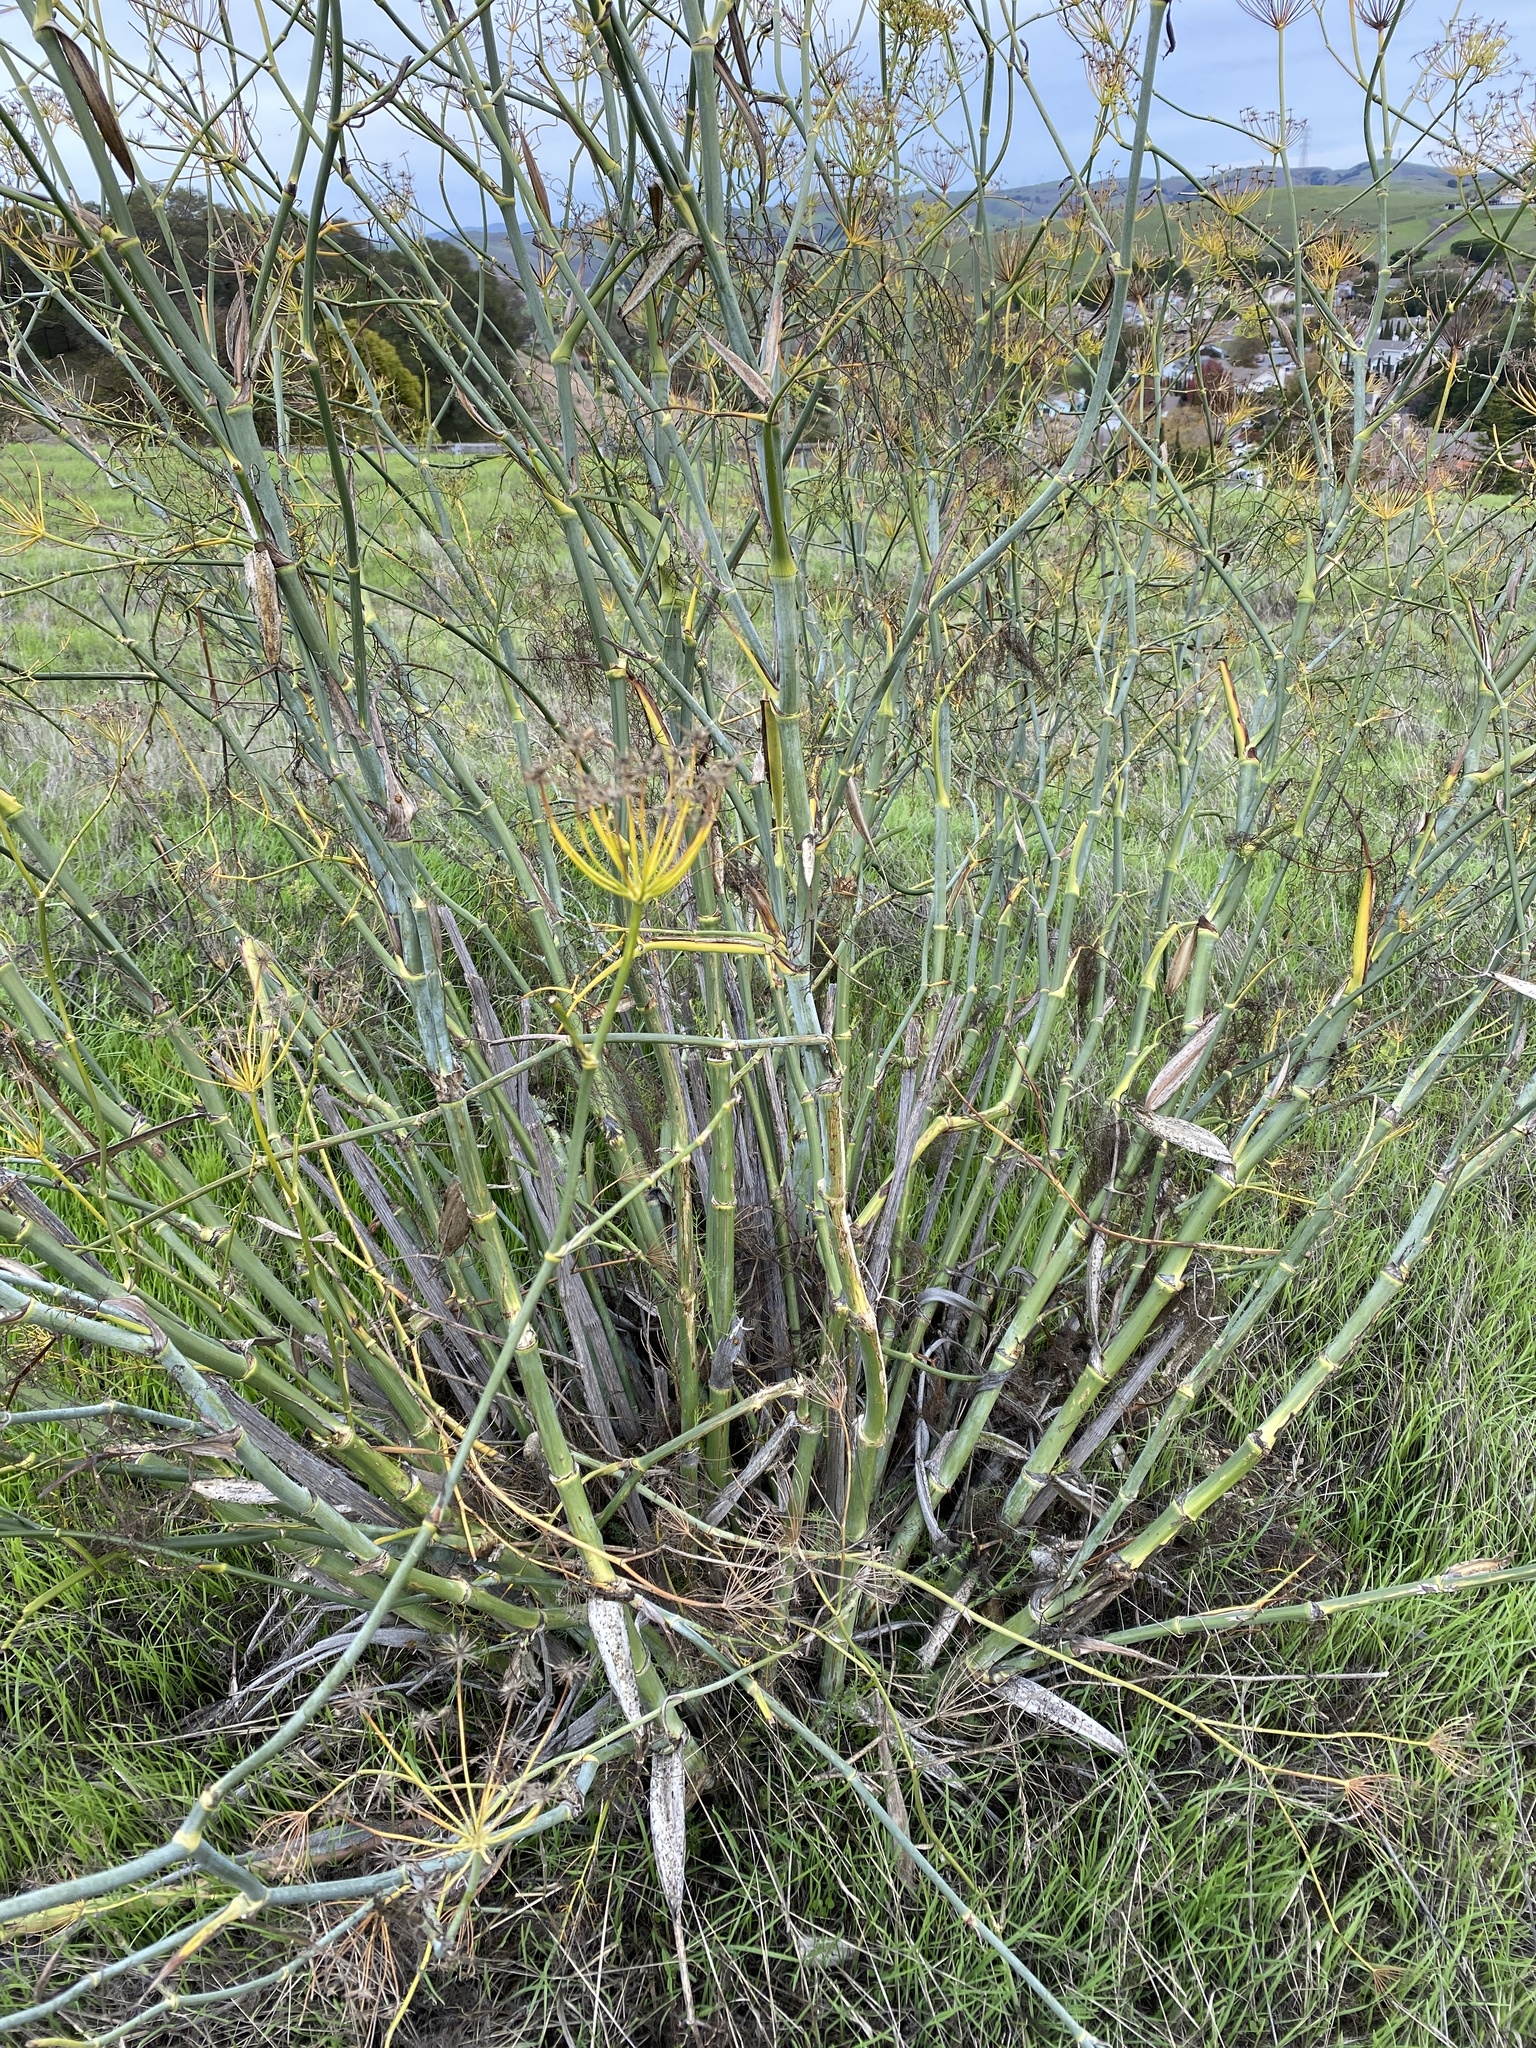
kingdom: Plantae
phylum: Tracheophyta
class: Magnoliopsida
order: Apiales
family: Apiaceae
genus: Foeniculum
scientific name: Foeniculum vulgare
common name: Fennel
